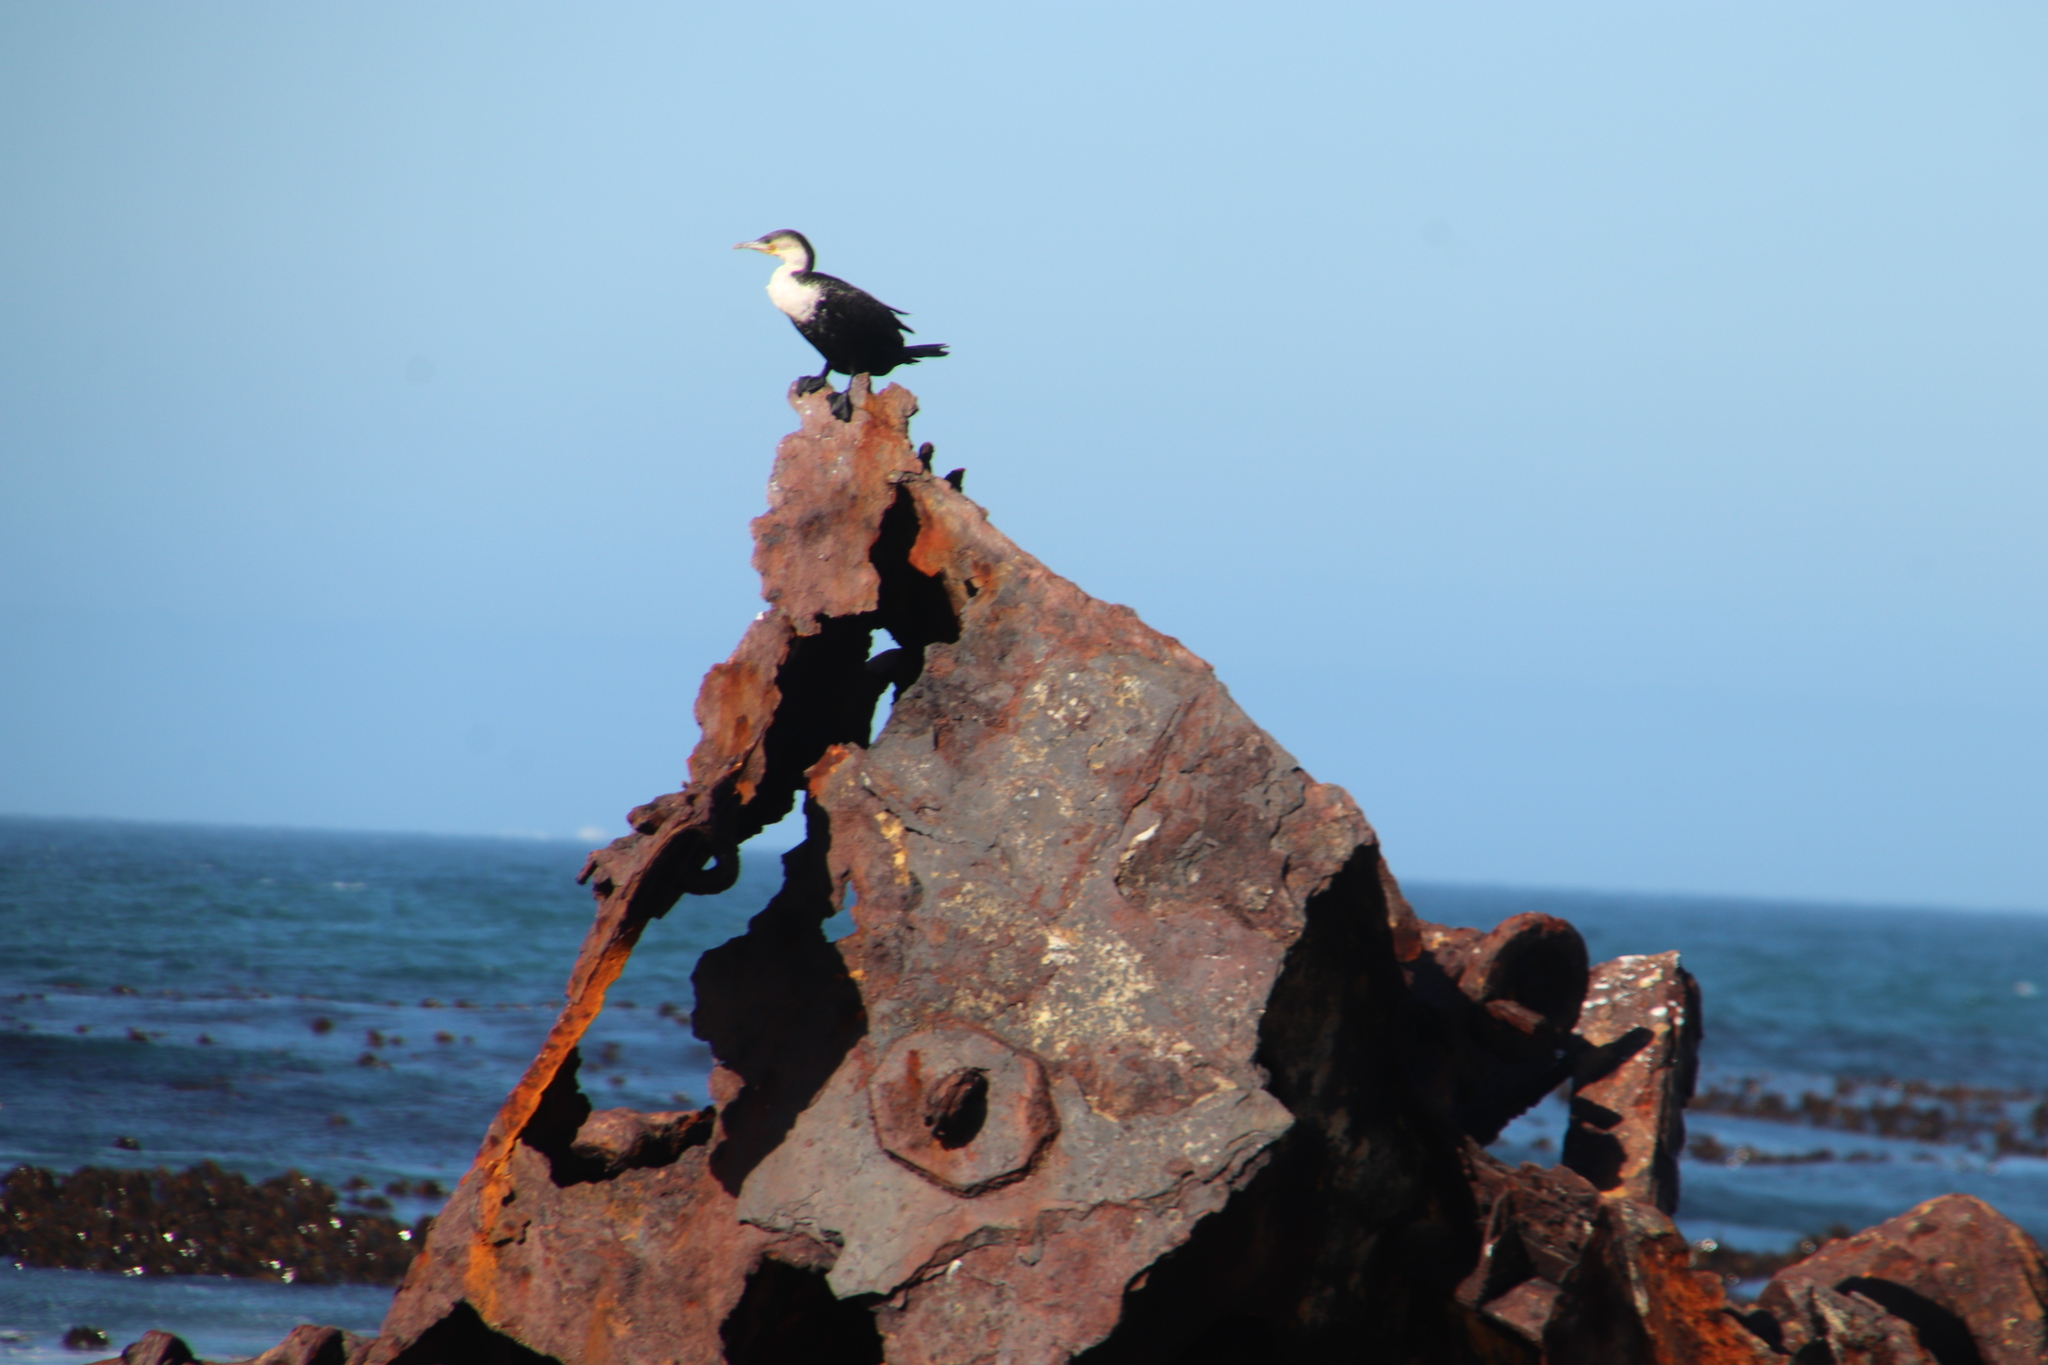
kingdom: Animalia
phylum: Chordata
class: Aves
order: Suliformes
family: Phalacrocoracidae
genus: Phalacrocorax
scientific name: Phalacrocorax carbo
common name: Great cormorant
